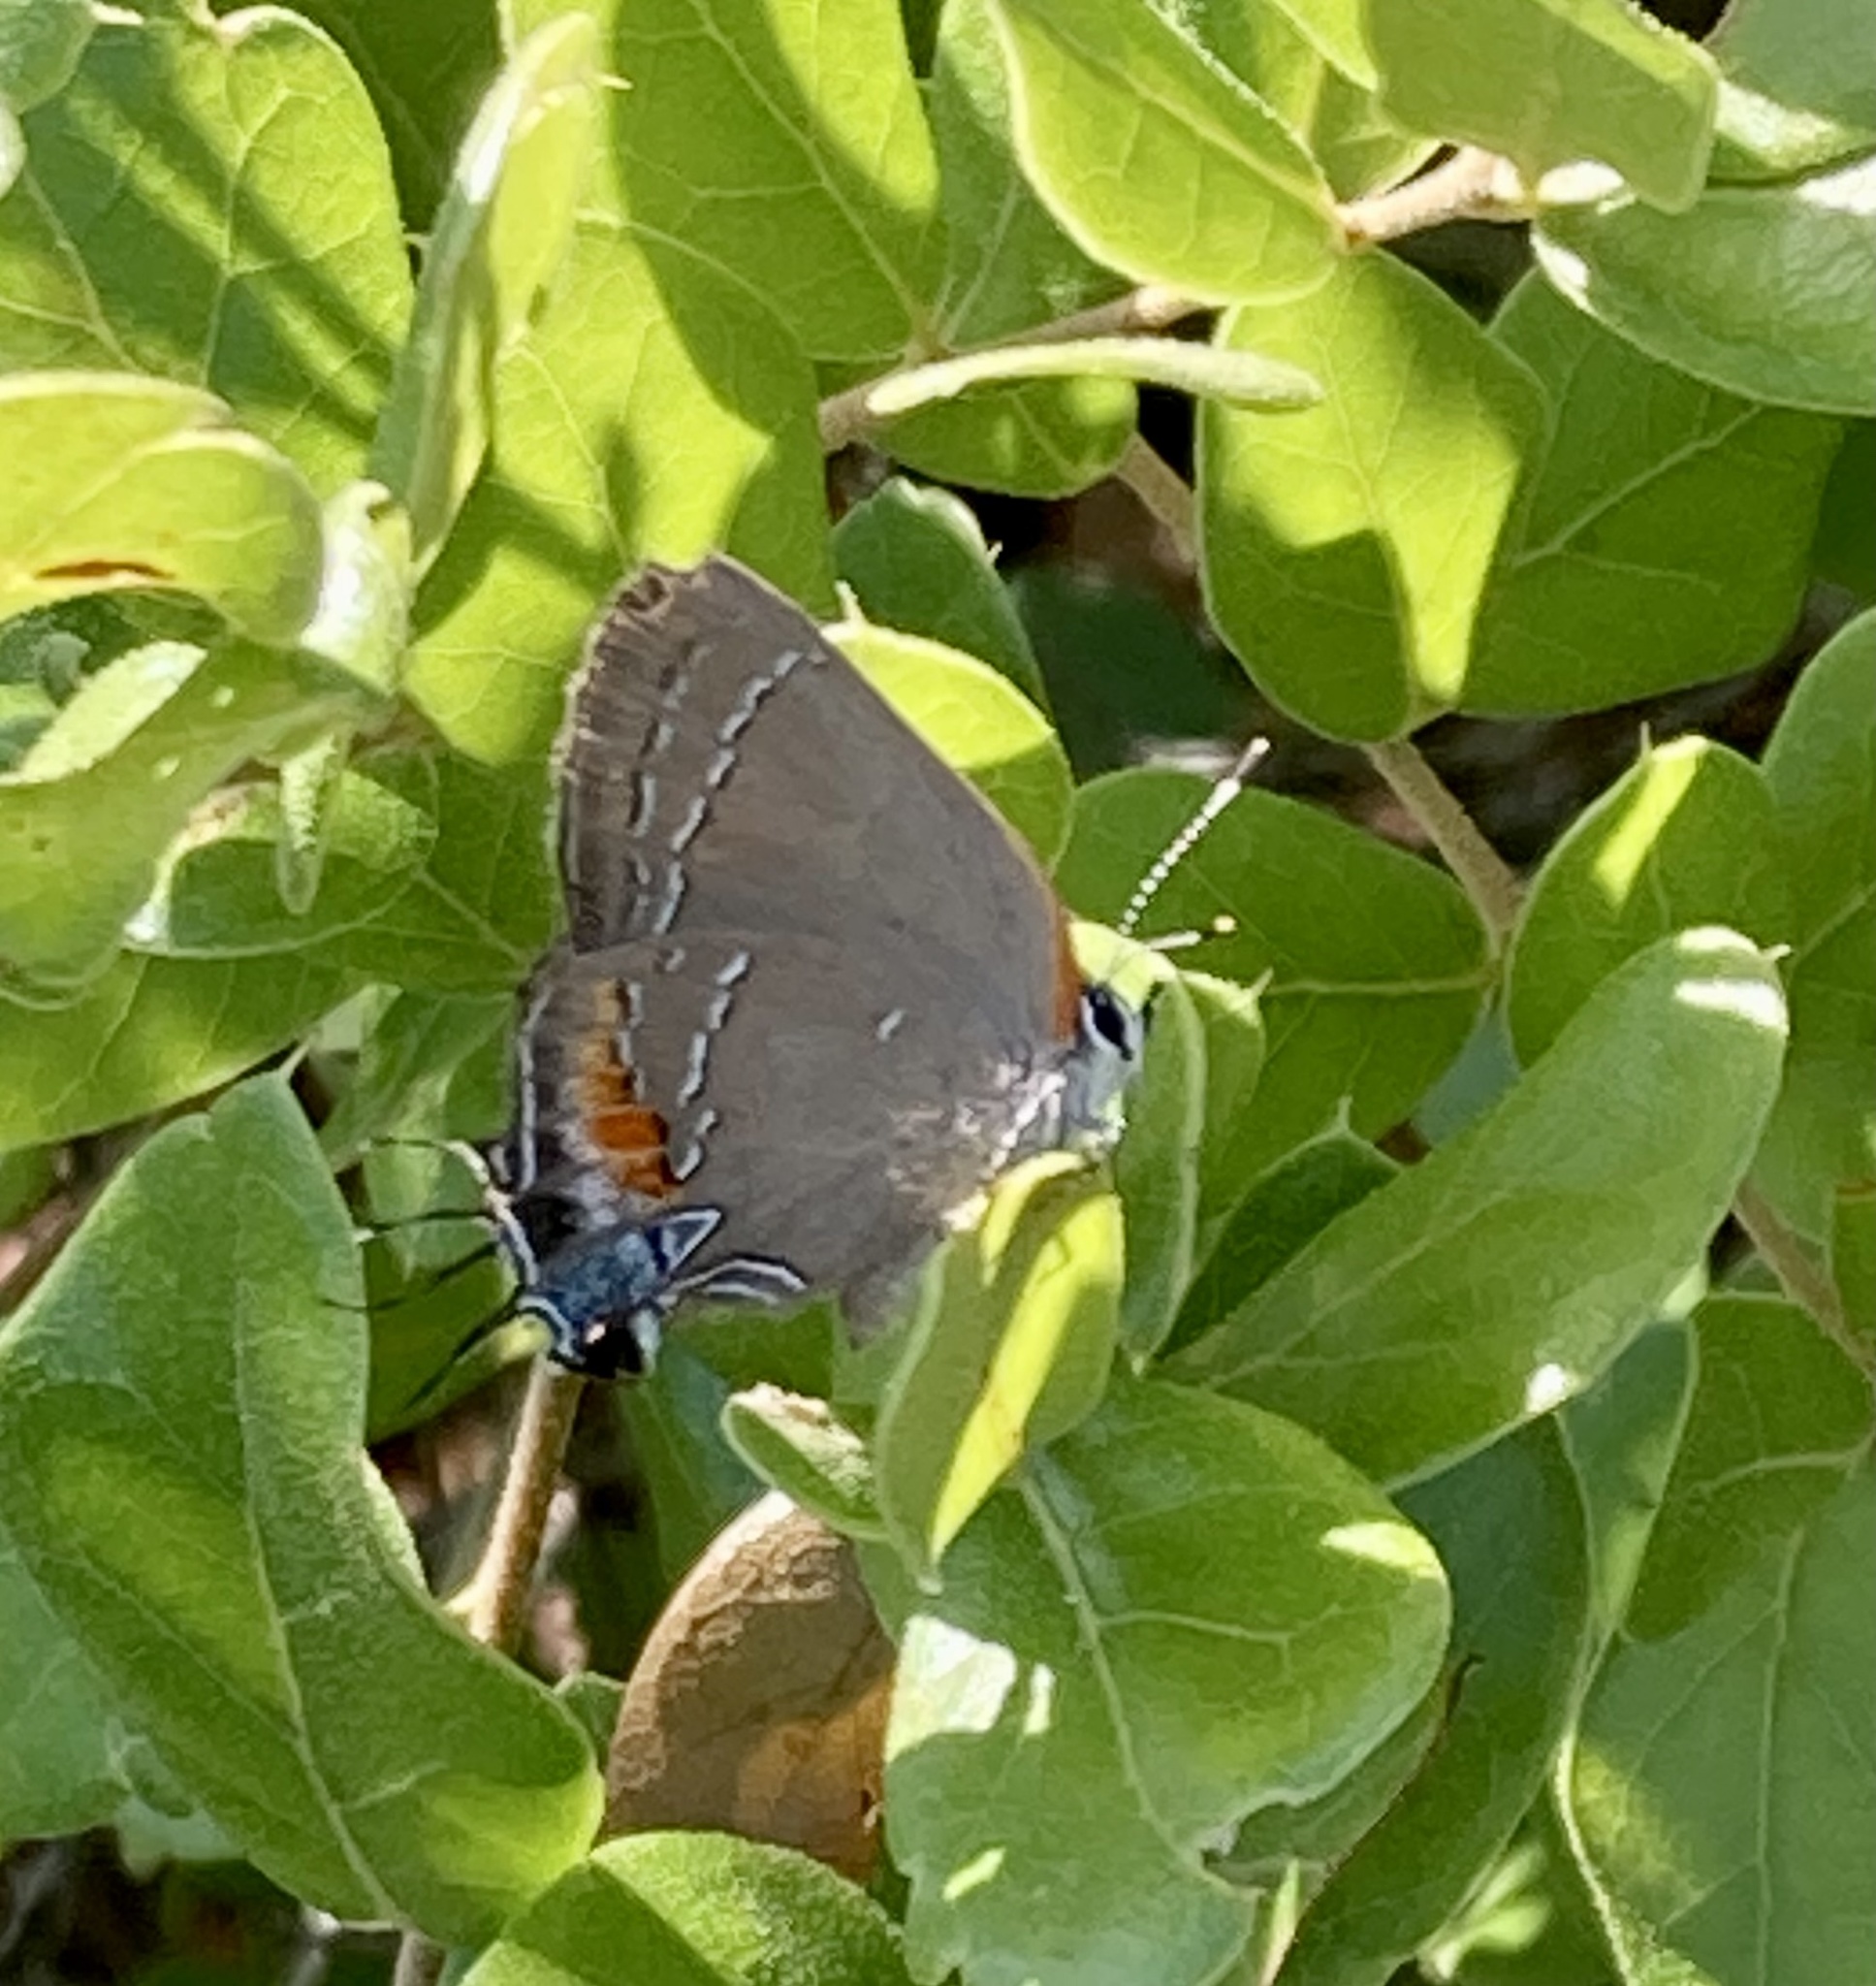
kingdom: Animalia
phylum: Arthropoda
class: Insecta
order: Lepidoptera
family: Lycaenidae
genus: Fixsenia
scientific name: Fixsenia favonius
